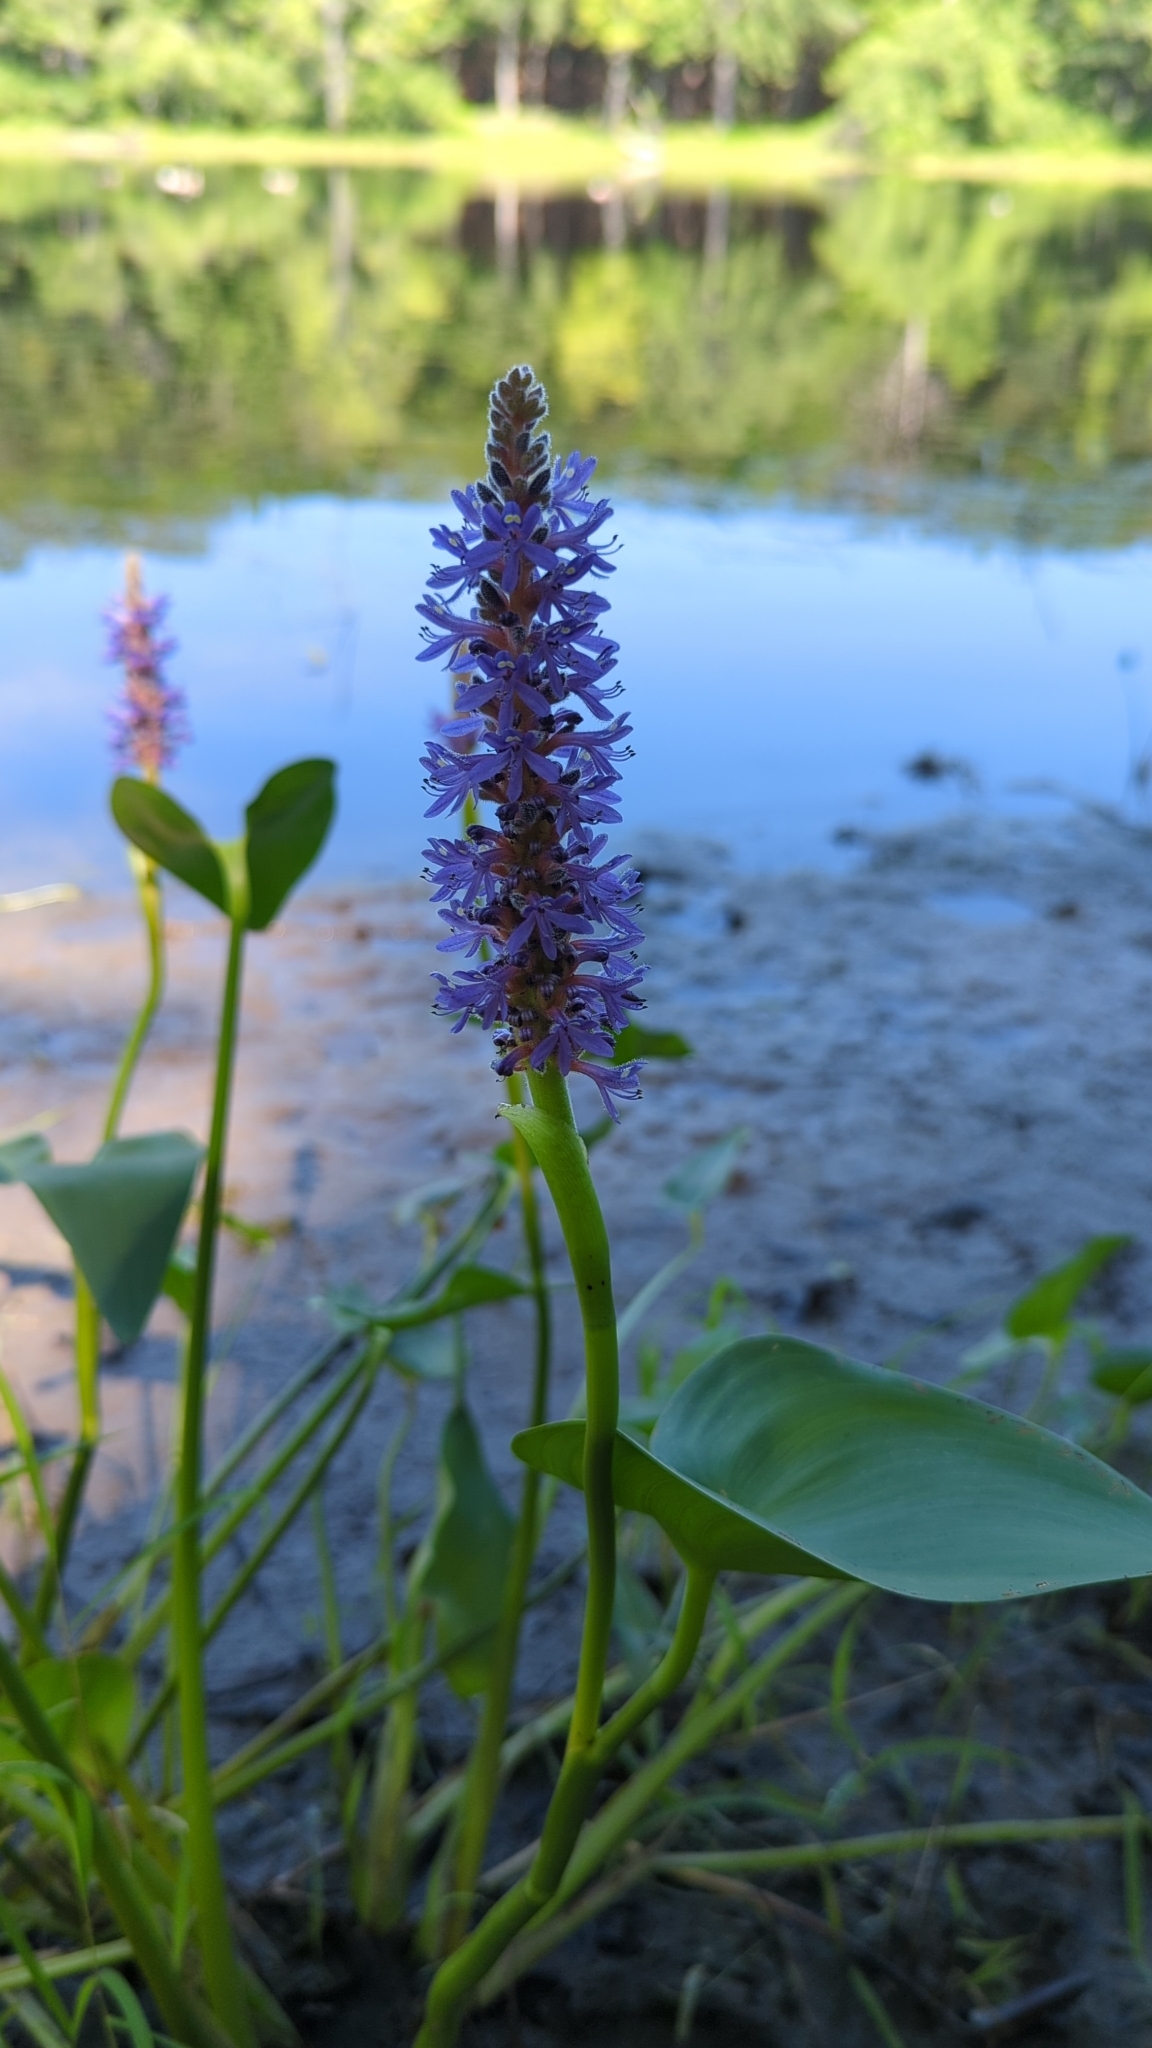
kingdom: Plantae
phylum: Tracheophyta
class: Liliopsida
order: Commelinales
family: Pontederiaceae
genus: Pontederia
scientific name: Pontederia cordata
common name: Pickerelweed
